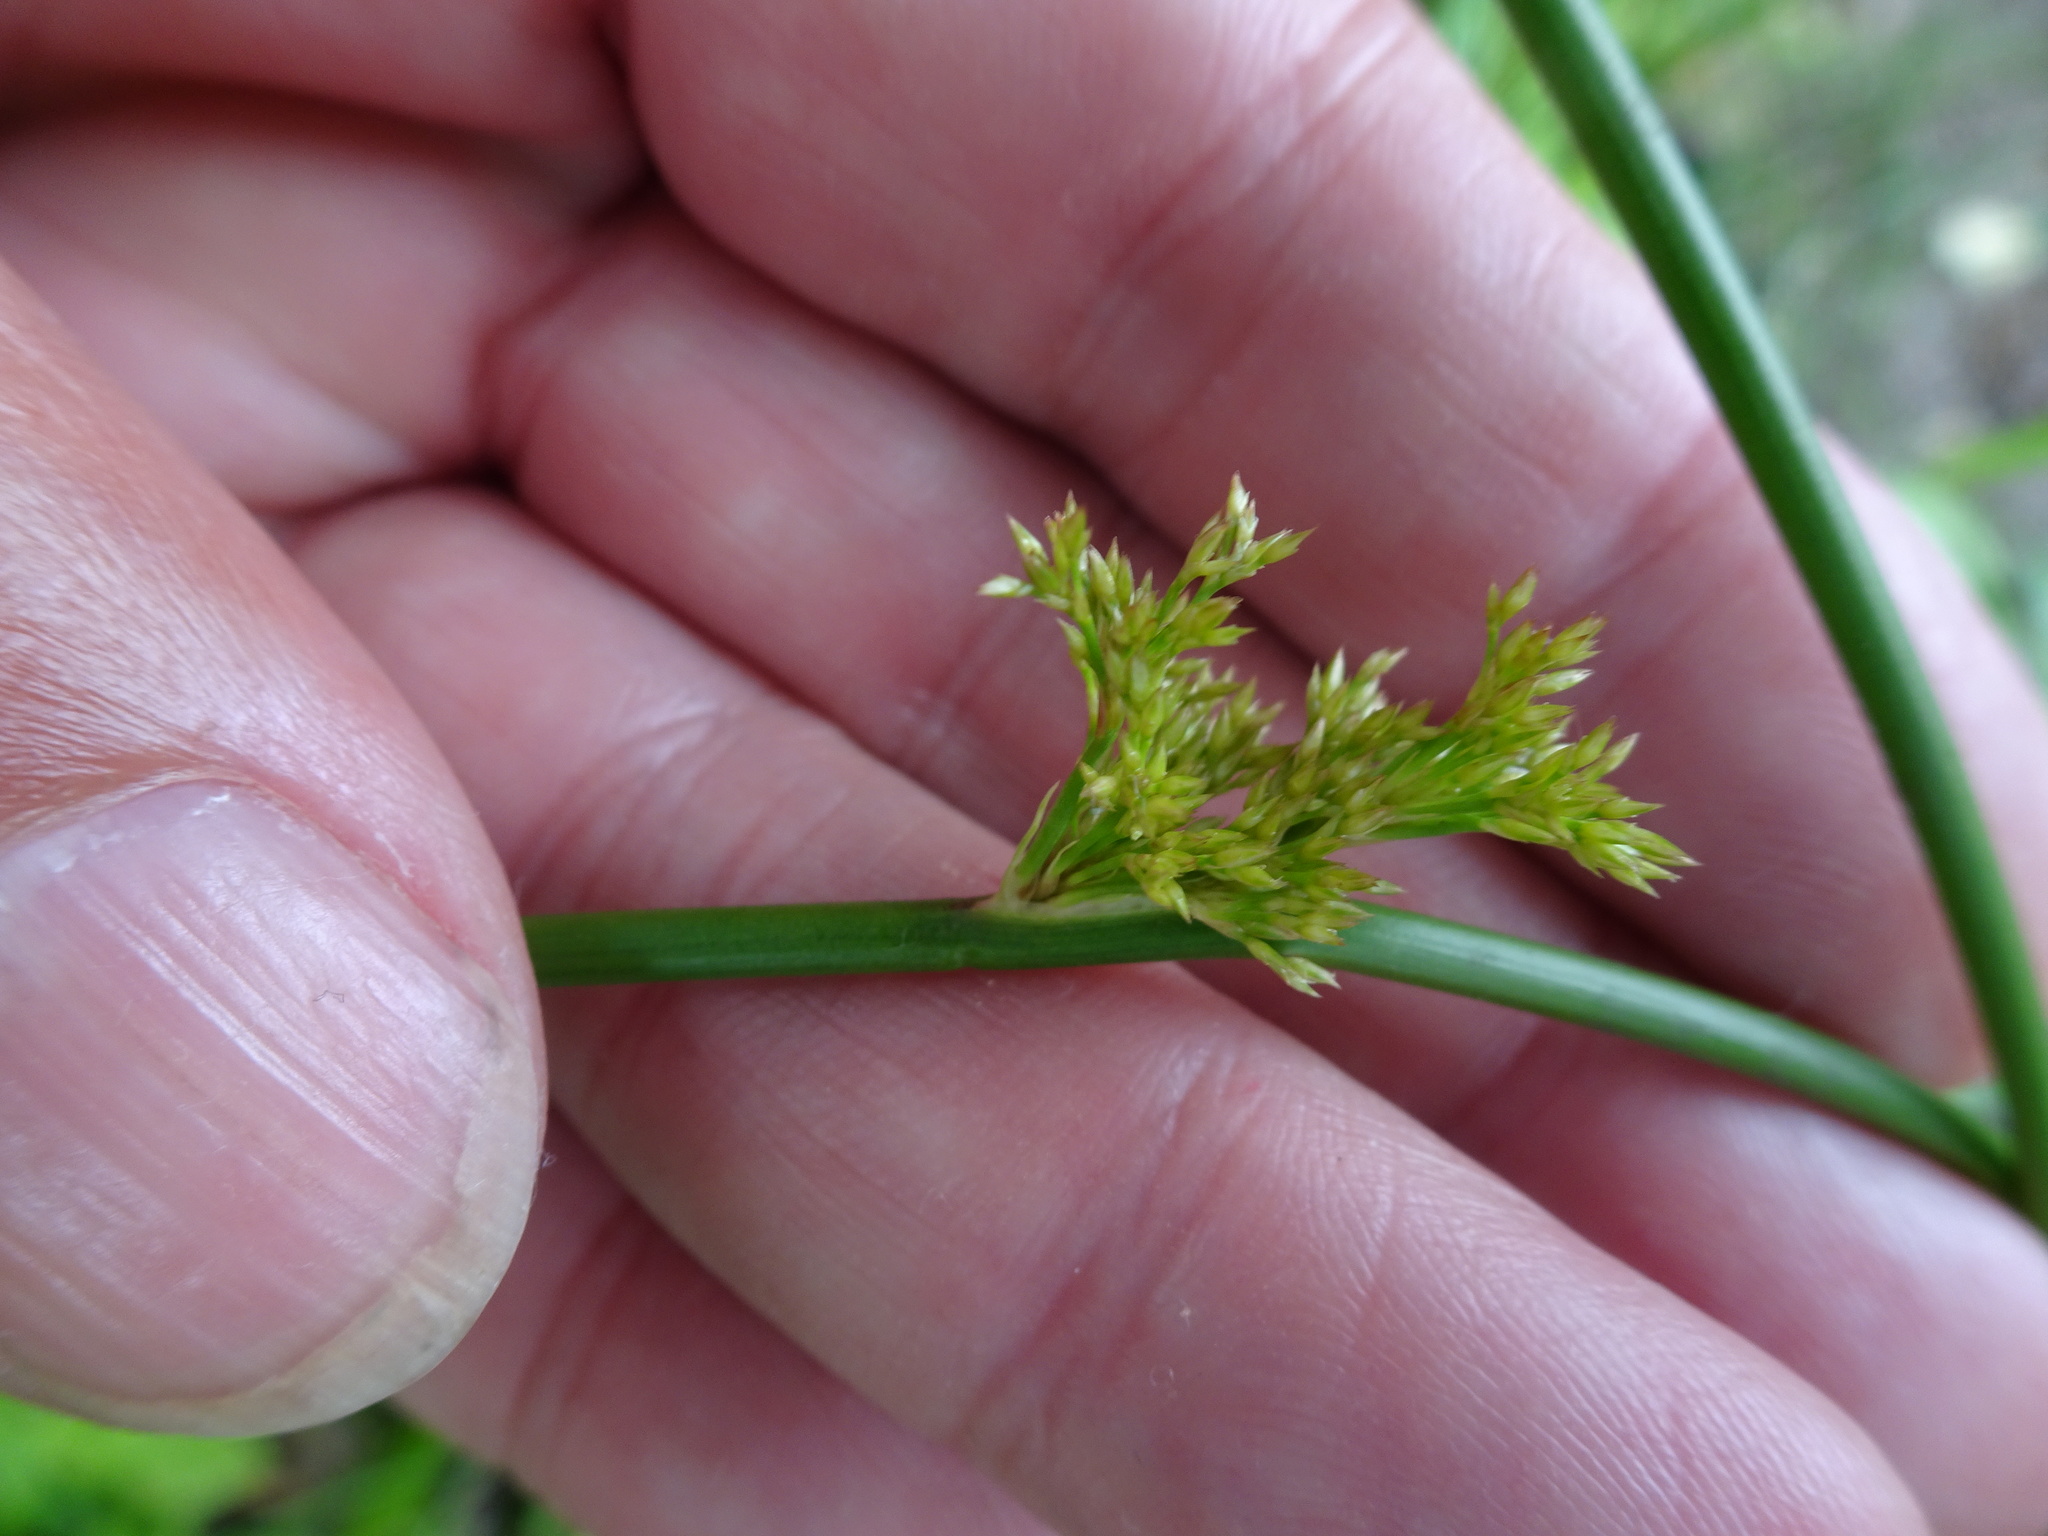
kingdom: Plantae
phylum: Tracheophyta
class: Liliopsida
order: Poales
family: Juncaceae
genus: Juncus
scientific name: Juncus effusus
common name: Soft rush
